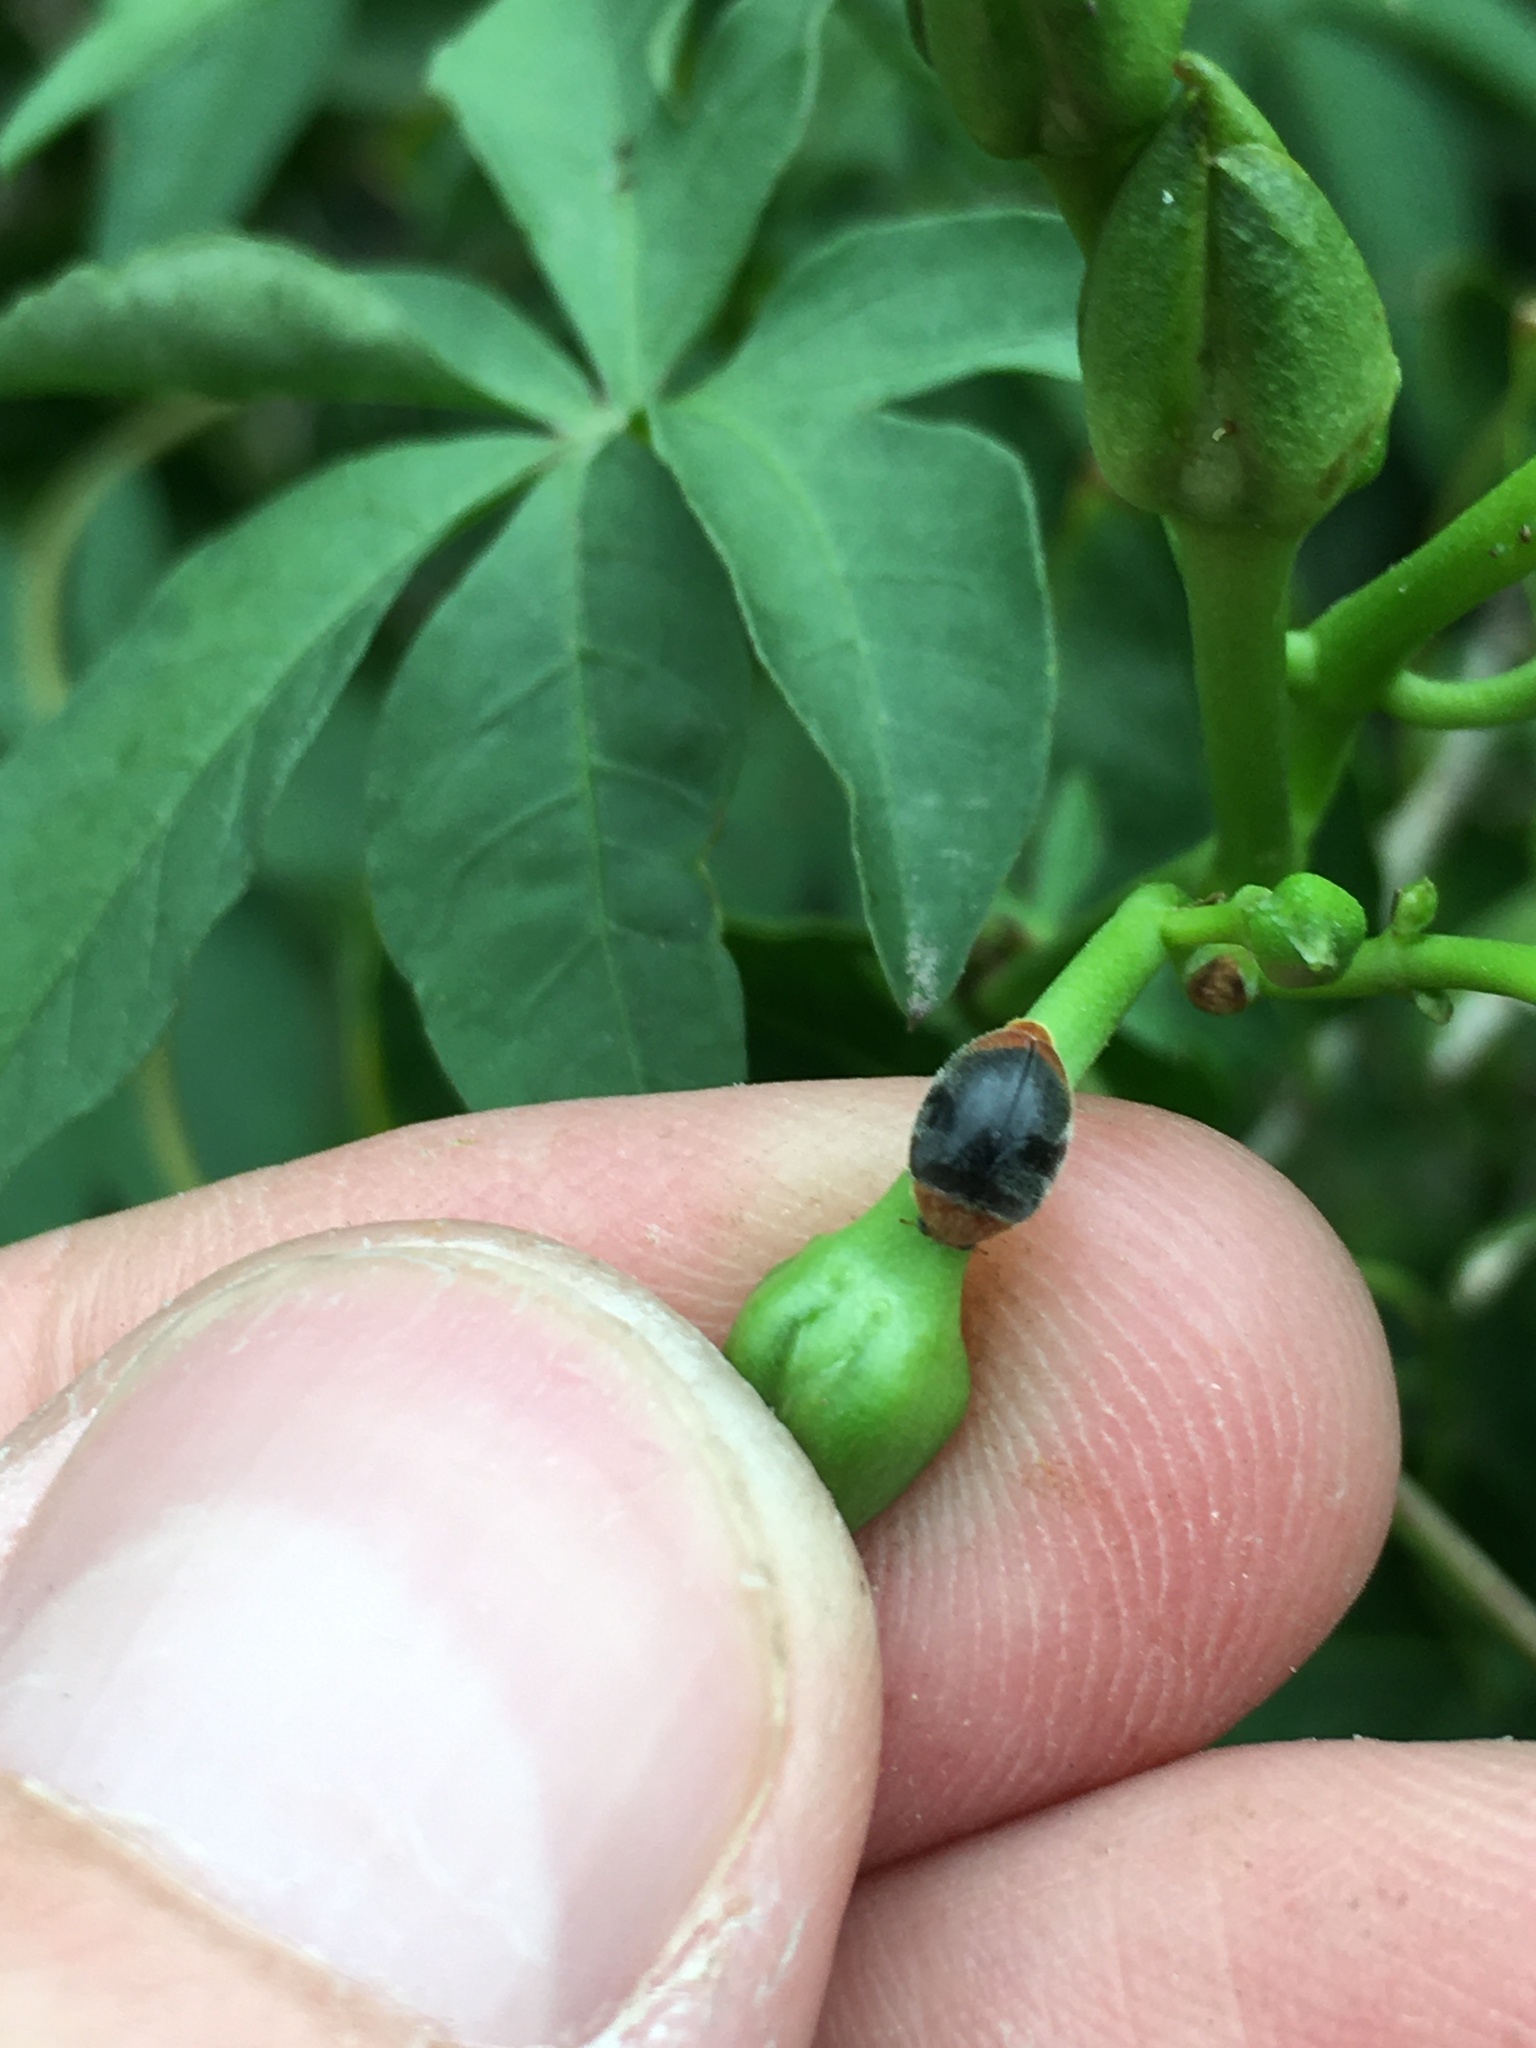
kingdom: Animalia
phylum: Arthropoda
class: Insecta
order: Coleoptera
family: Coccinellidae
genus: Cryptolaemus
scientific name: Cryptolaemus montrouzieri
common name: Mealybug destroyer
